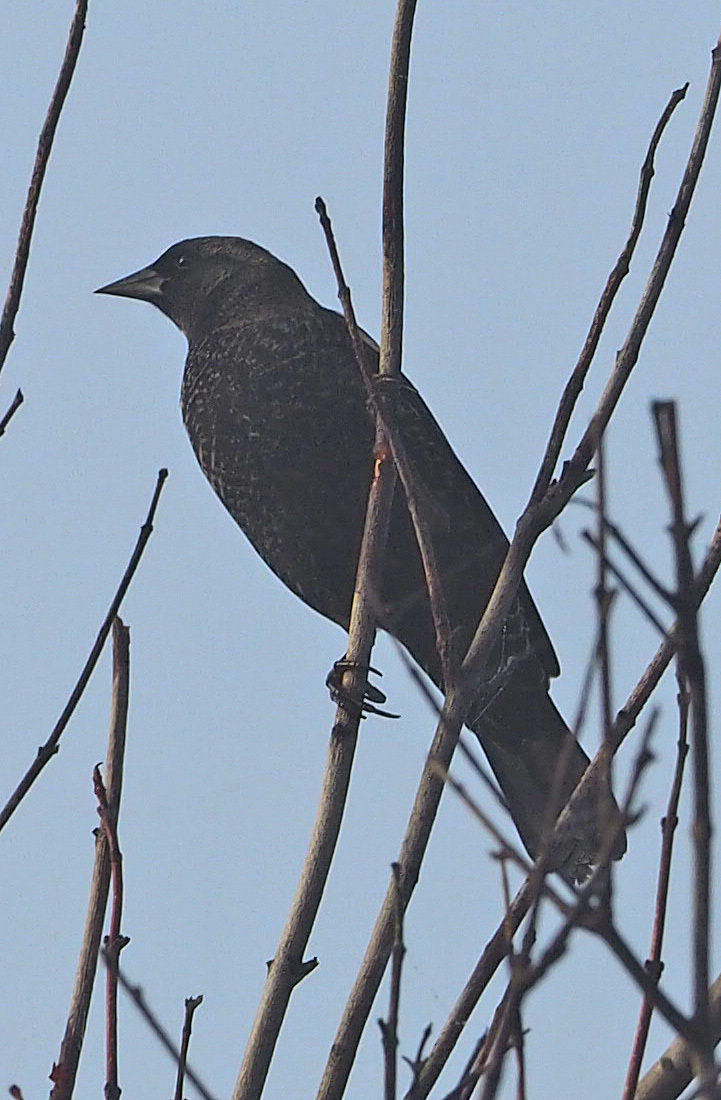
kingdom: Animalia
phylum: Chordata
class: Aves
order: Passeriformes
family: Icteridae
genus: Agelaius
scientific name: Agelaius phoeniceus
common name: Red-winged blackbird
